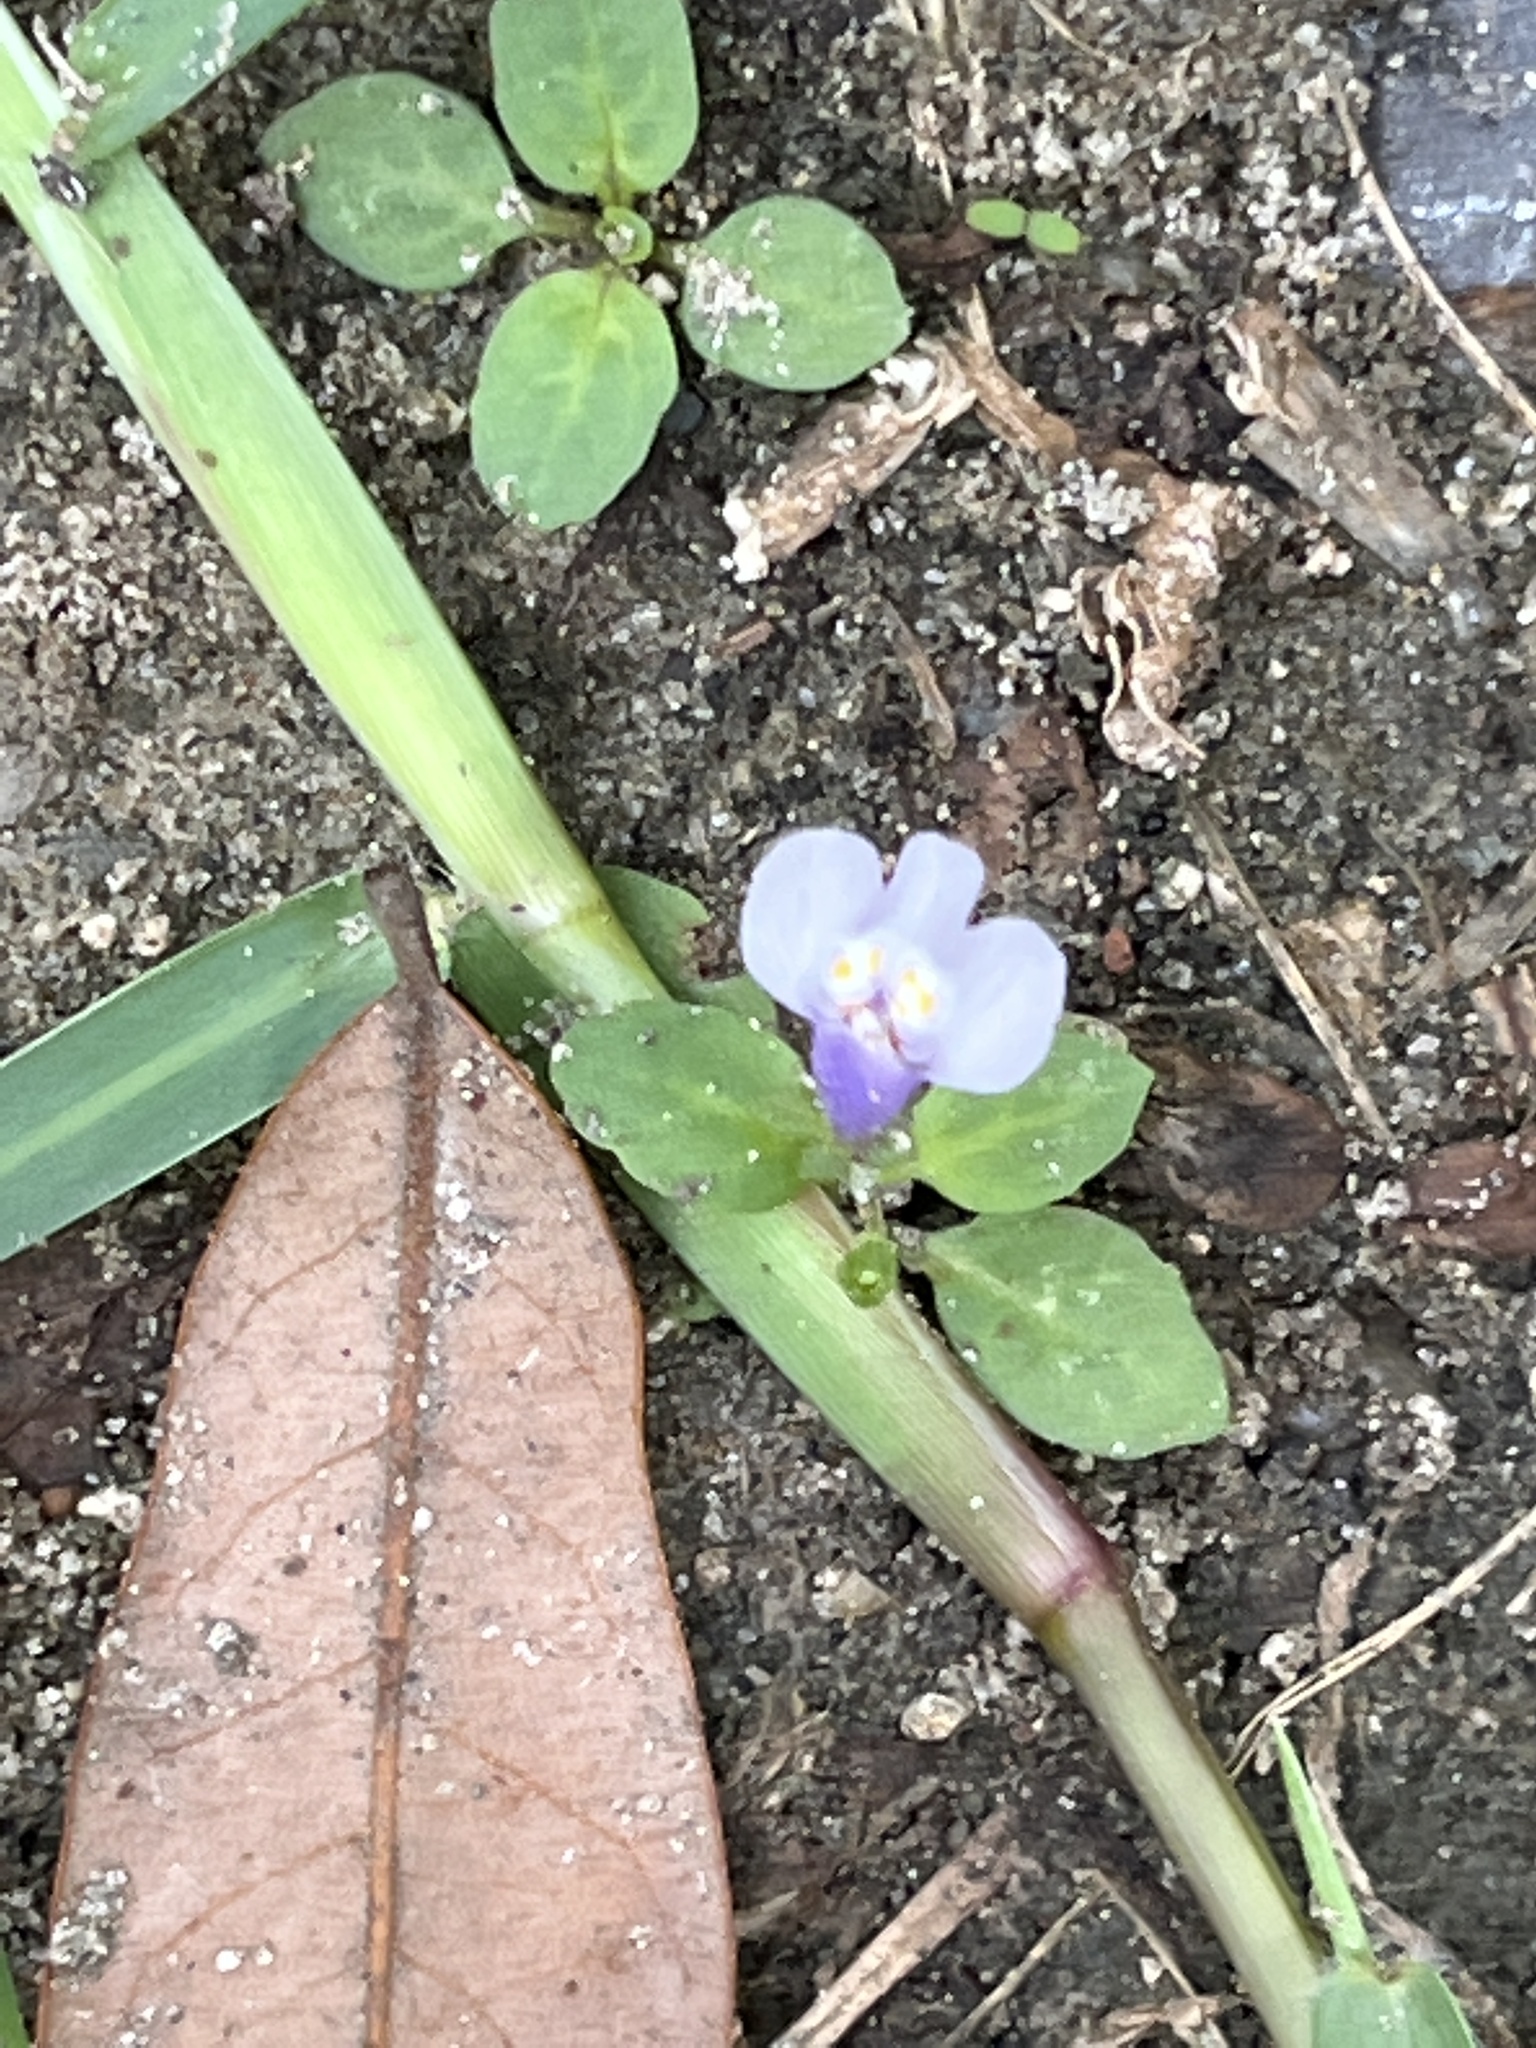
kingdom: Plantae
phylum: Tracheophyta
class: Magnoliopsida
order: Lamiales
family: Mazaceae
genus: Mazus
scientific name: Mazus pumilus
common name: Japanese mazus
